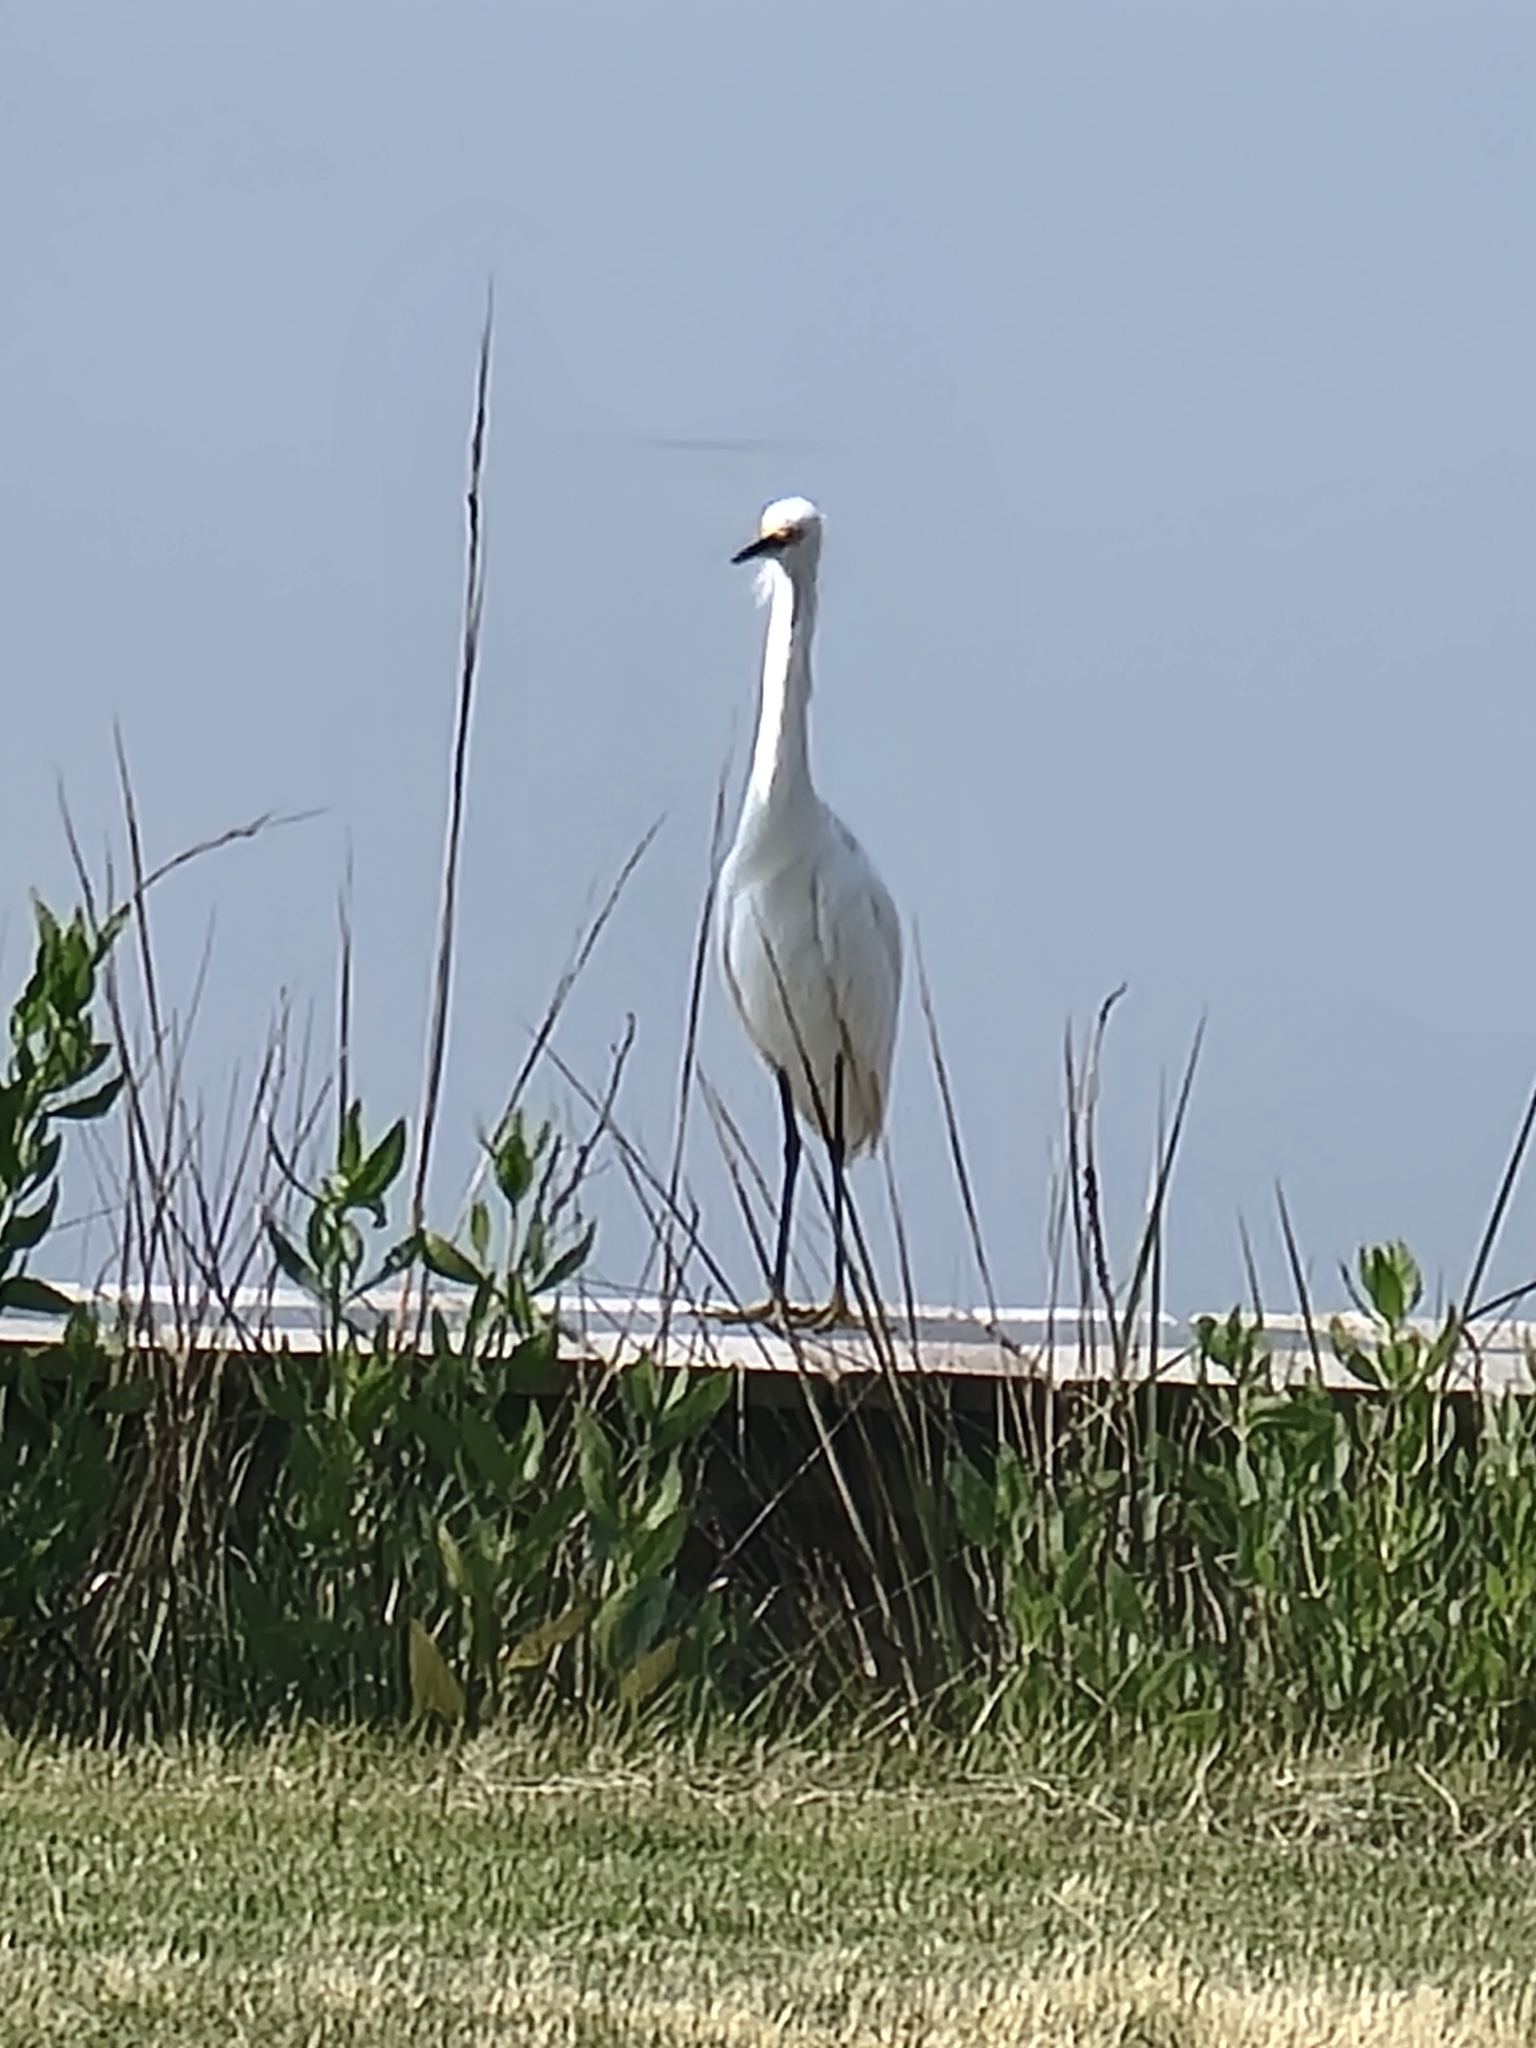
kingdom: Animalia
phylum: Chordata
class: Aves
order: Pelecaniformes
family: Ardeidae
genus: Egretta
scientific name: Egretta thula
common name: Snowy egret
